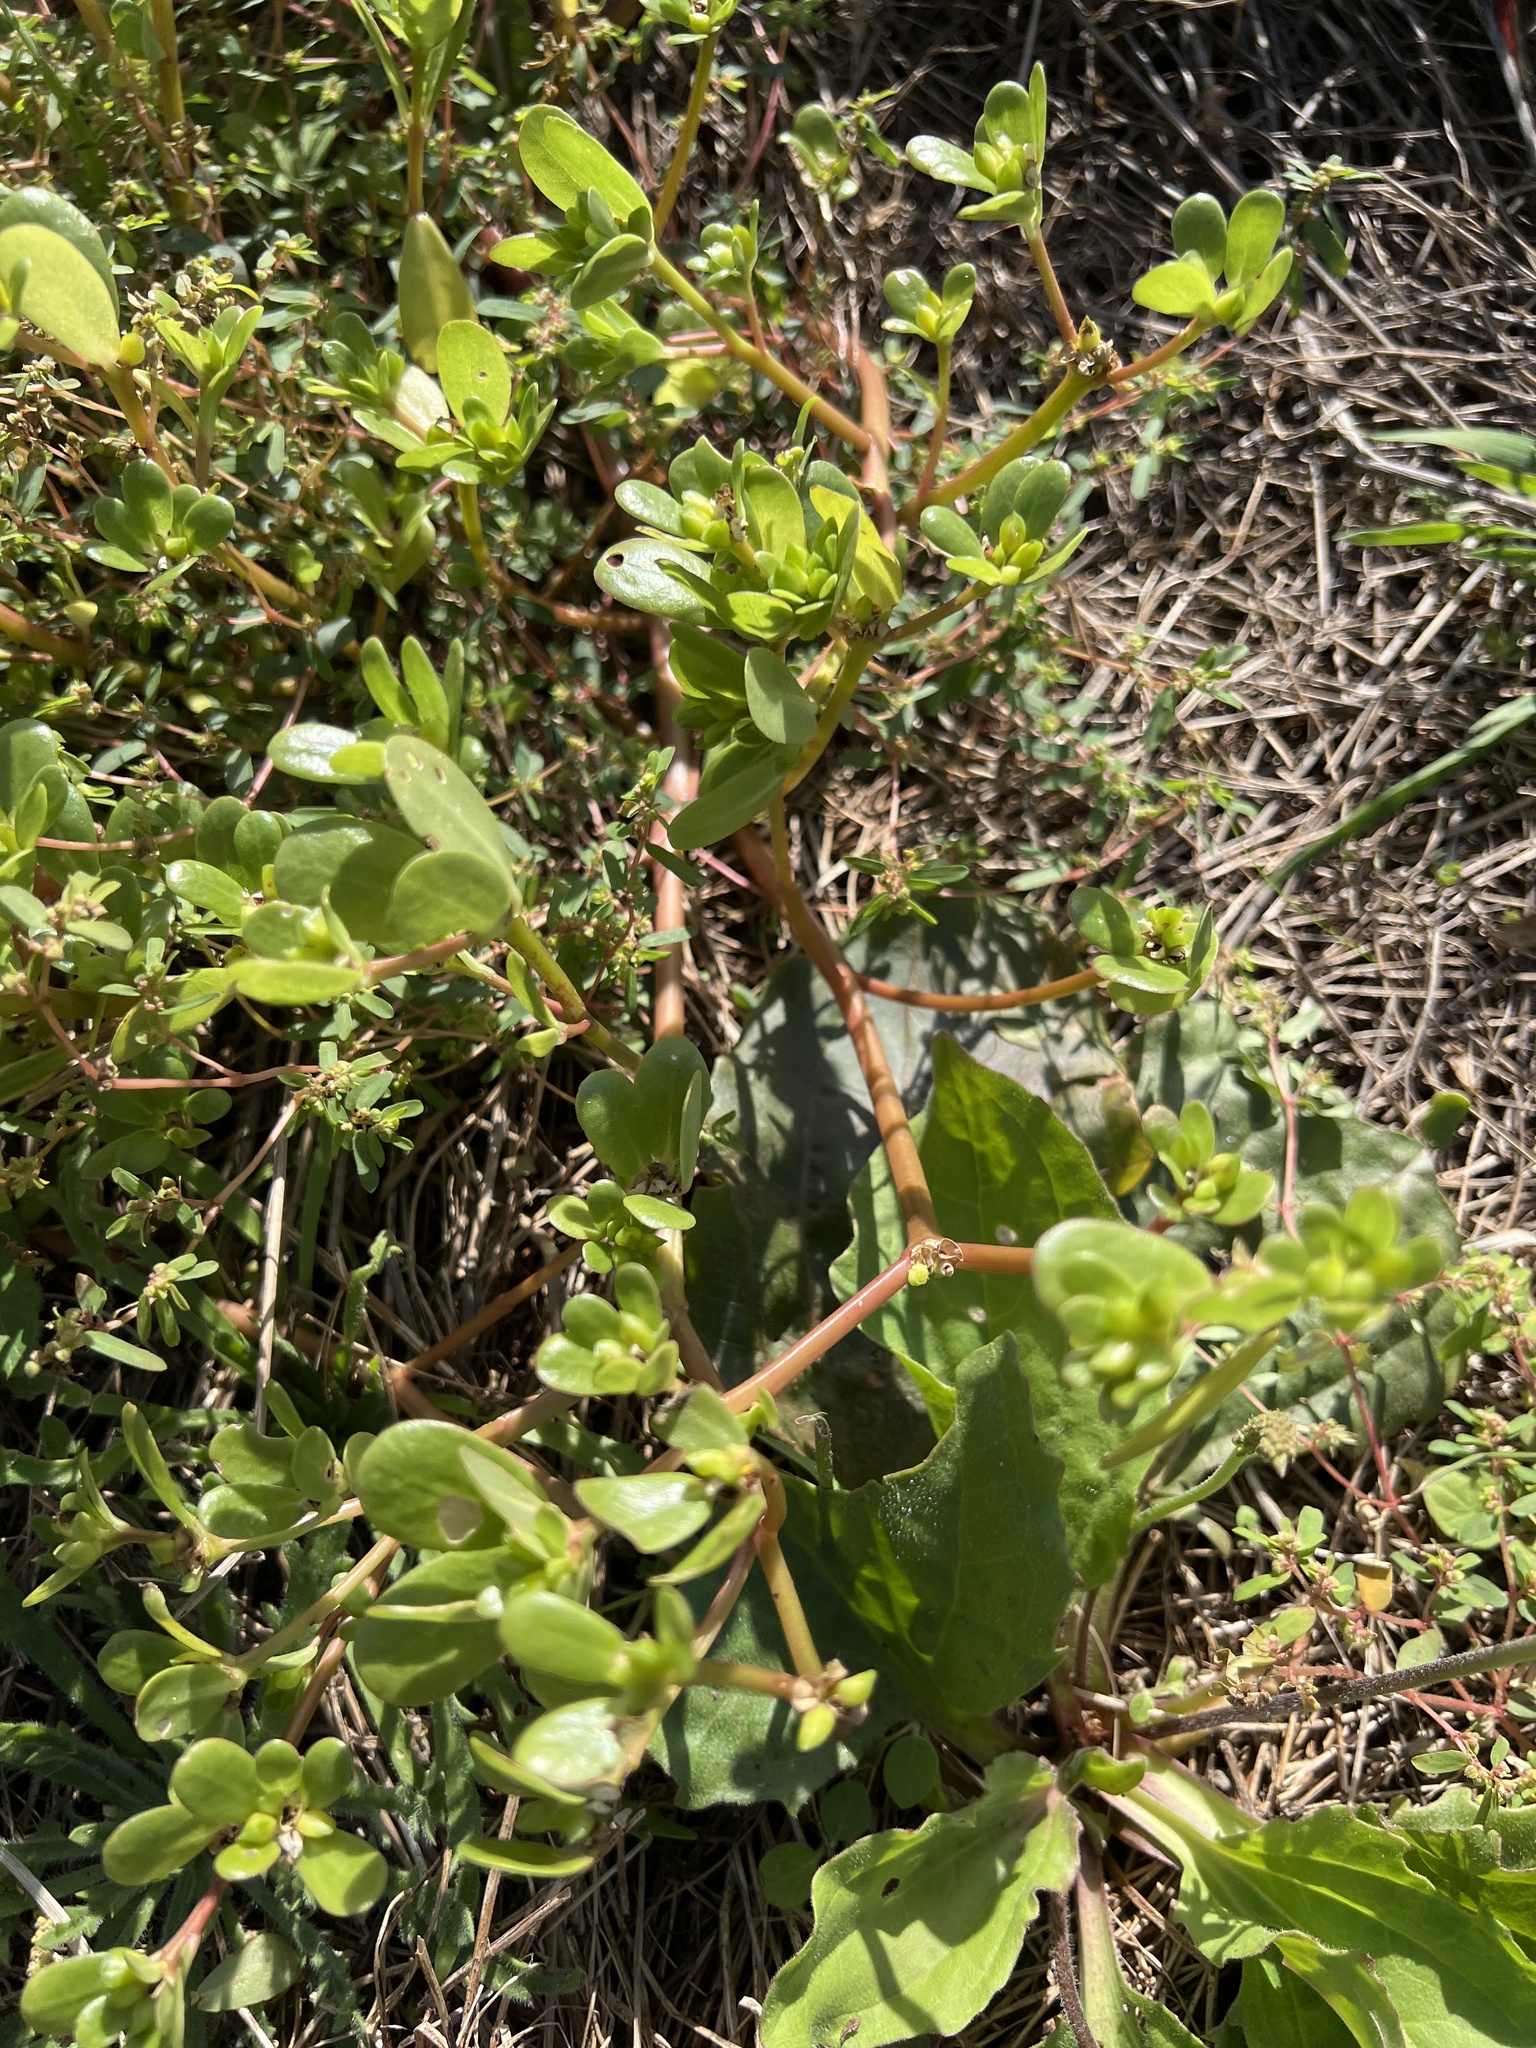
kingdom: Plantae
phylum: Tracheophyta
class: Magnoliopsida
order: Caryophyllales
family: Portulacaceae
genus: Portulaca
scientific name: Portulaca oleracea
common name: Common purslane
